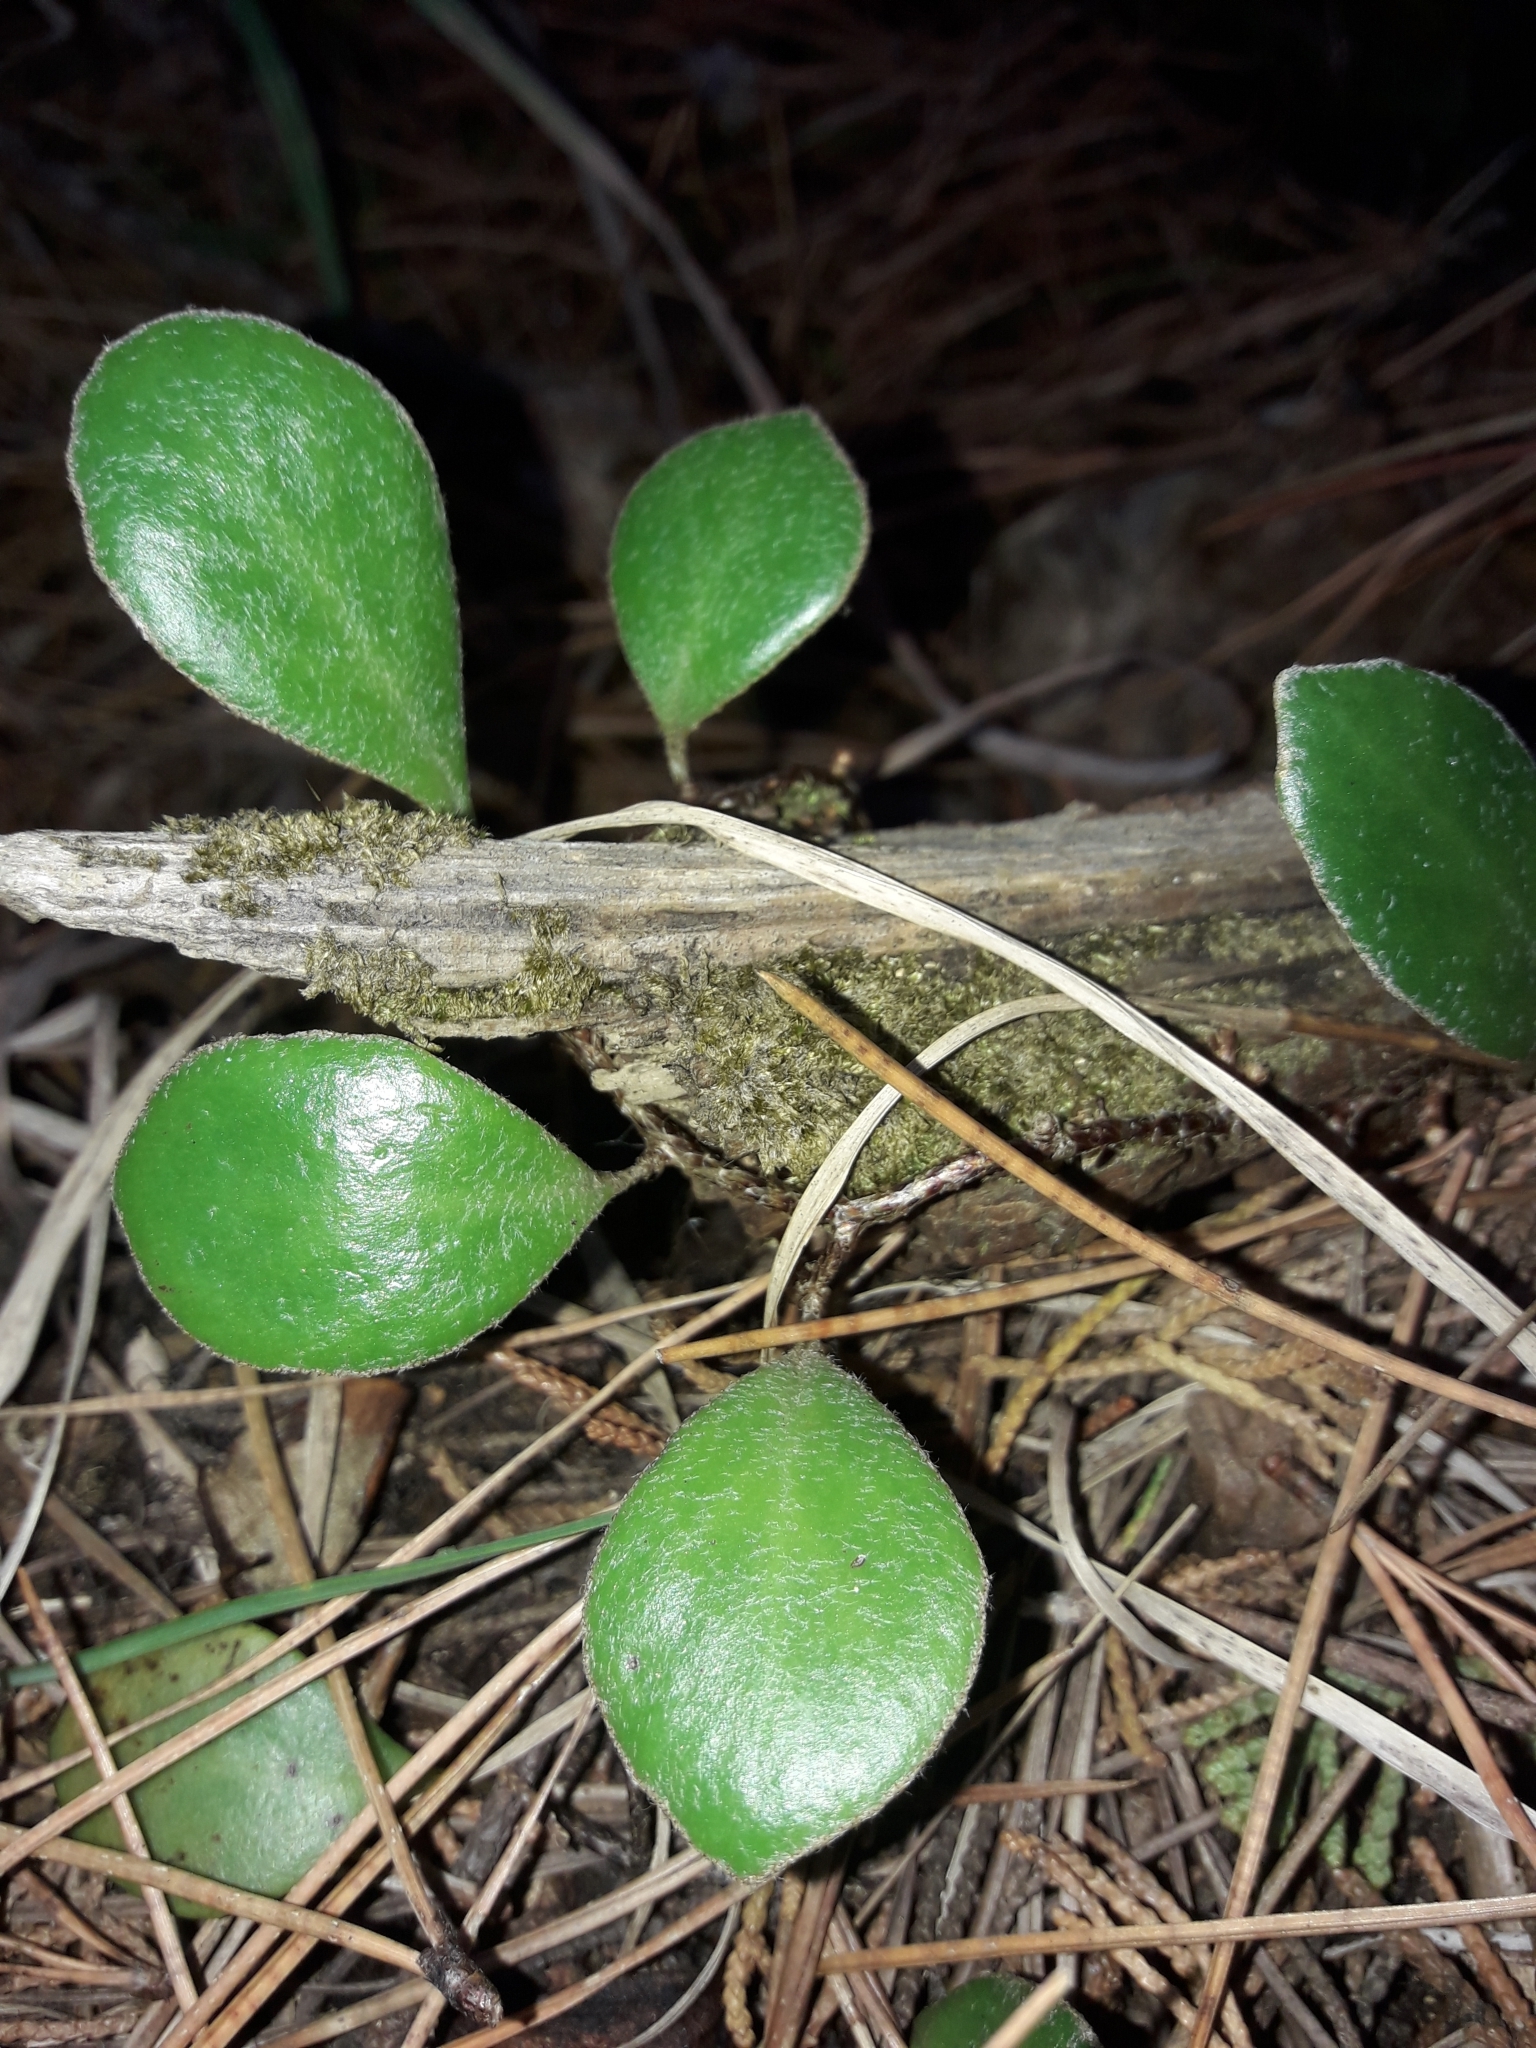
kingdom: Plantae
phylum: Tracheophyta
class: Polypodiopsida
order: Polypodiales
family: Polypodiaceae
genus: Pyrrosia
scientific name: Pyrrosia eleagnifolia
